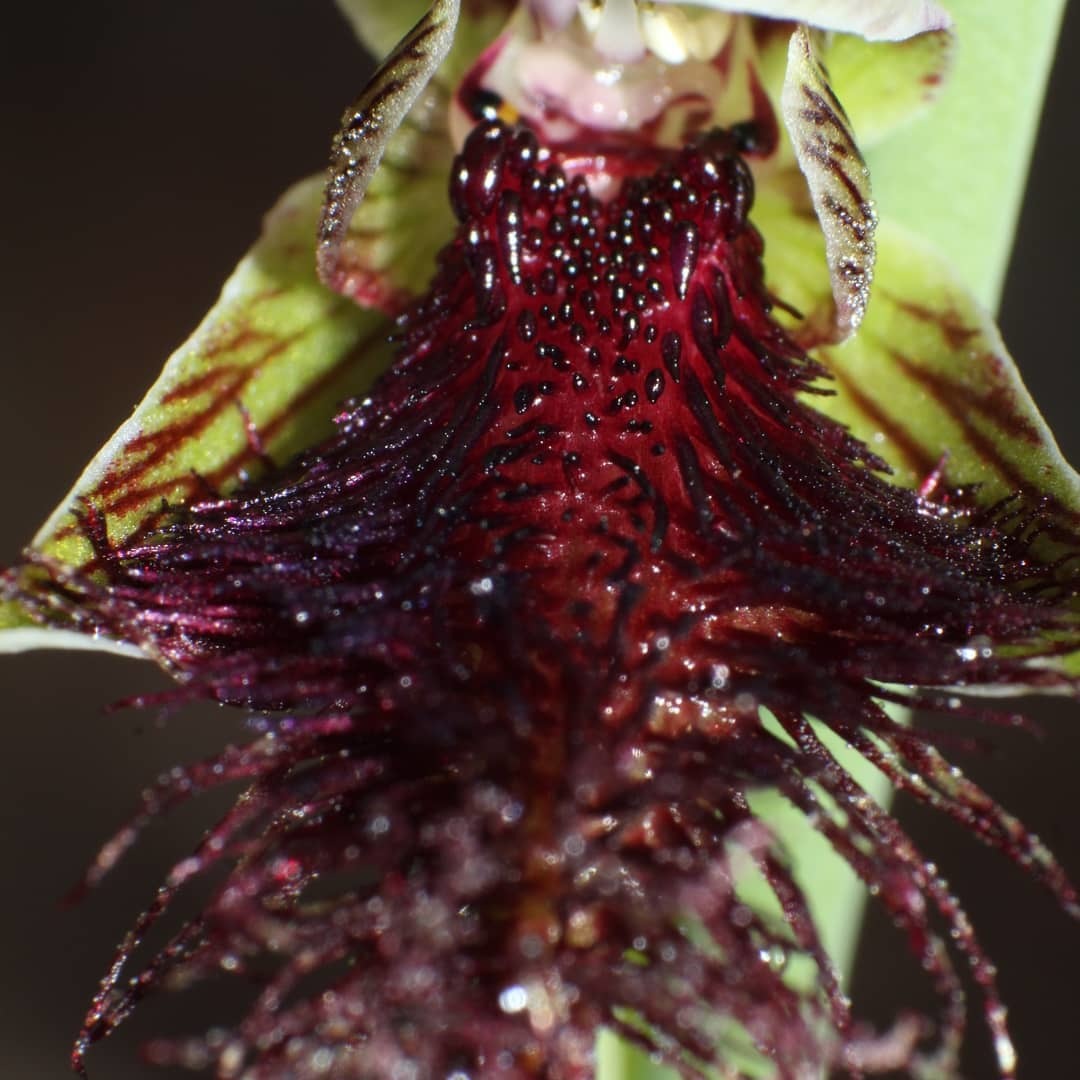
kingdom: Plantae
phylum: Tracheophyta
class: Liliopsida
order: Asparagales
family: Orchidaceae
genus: Calochilus
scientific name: Calochilus stramenicola
